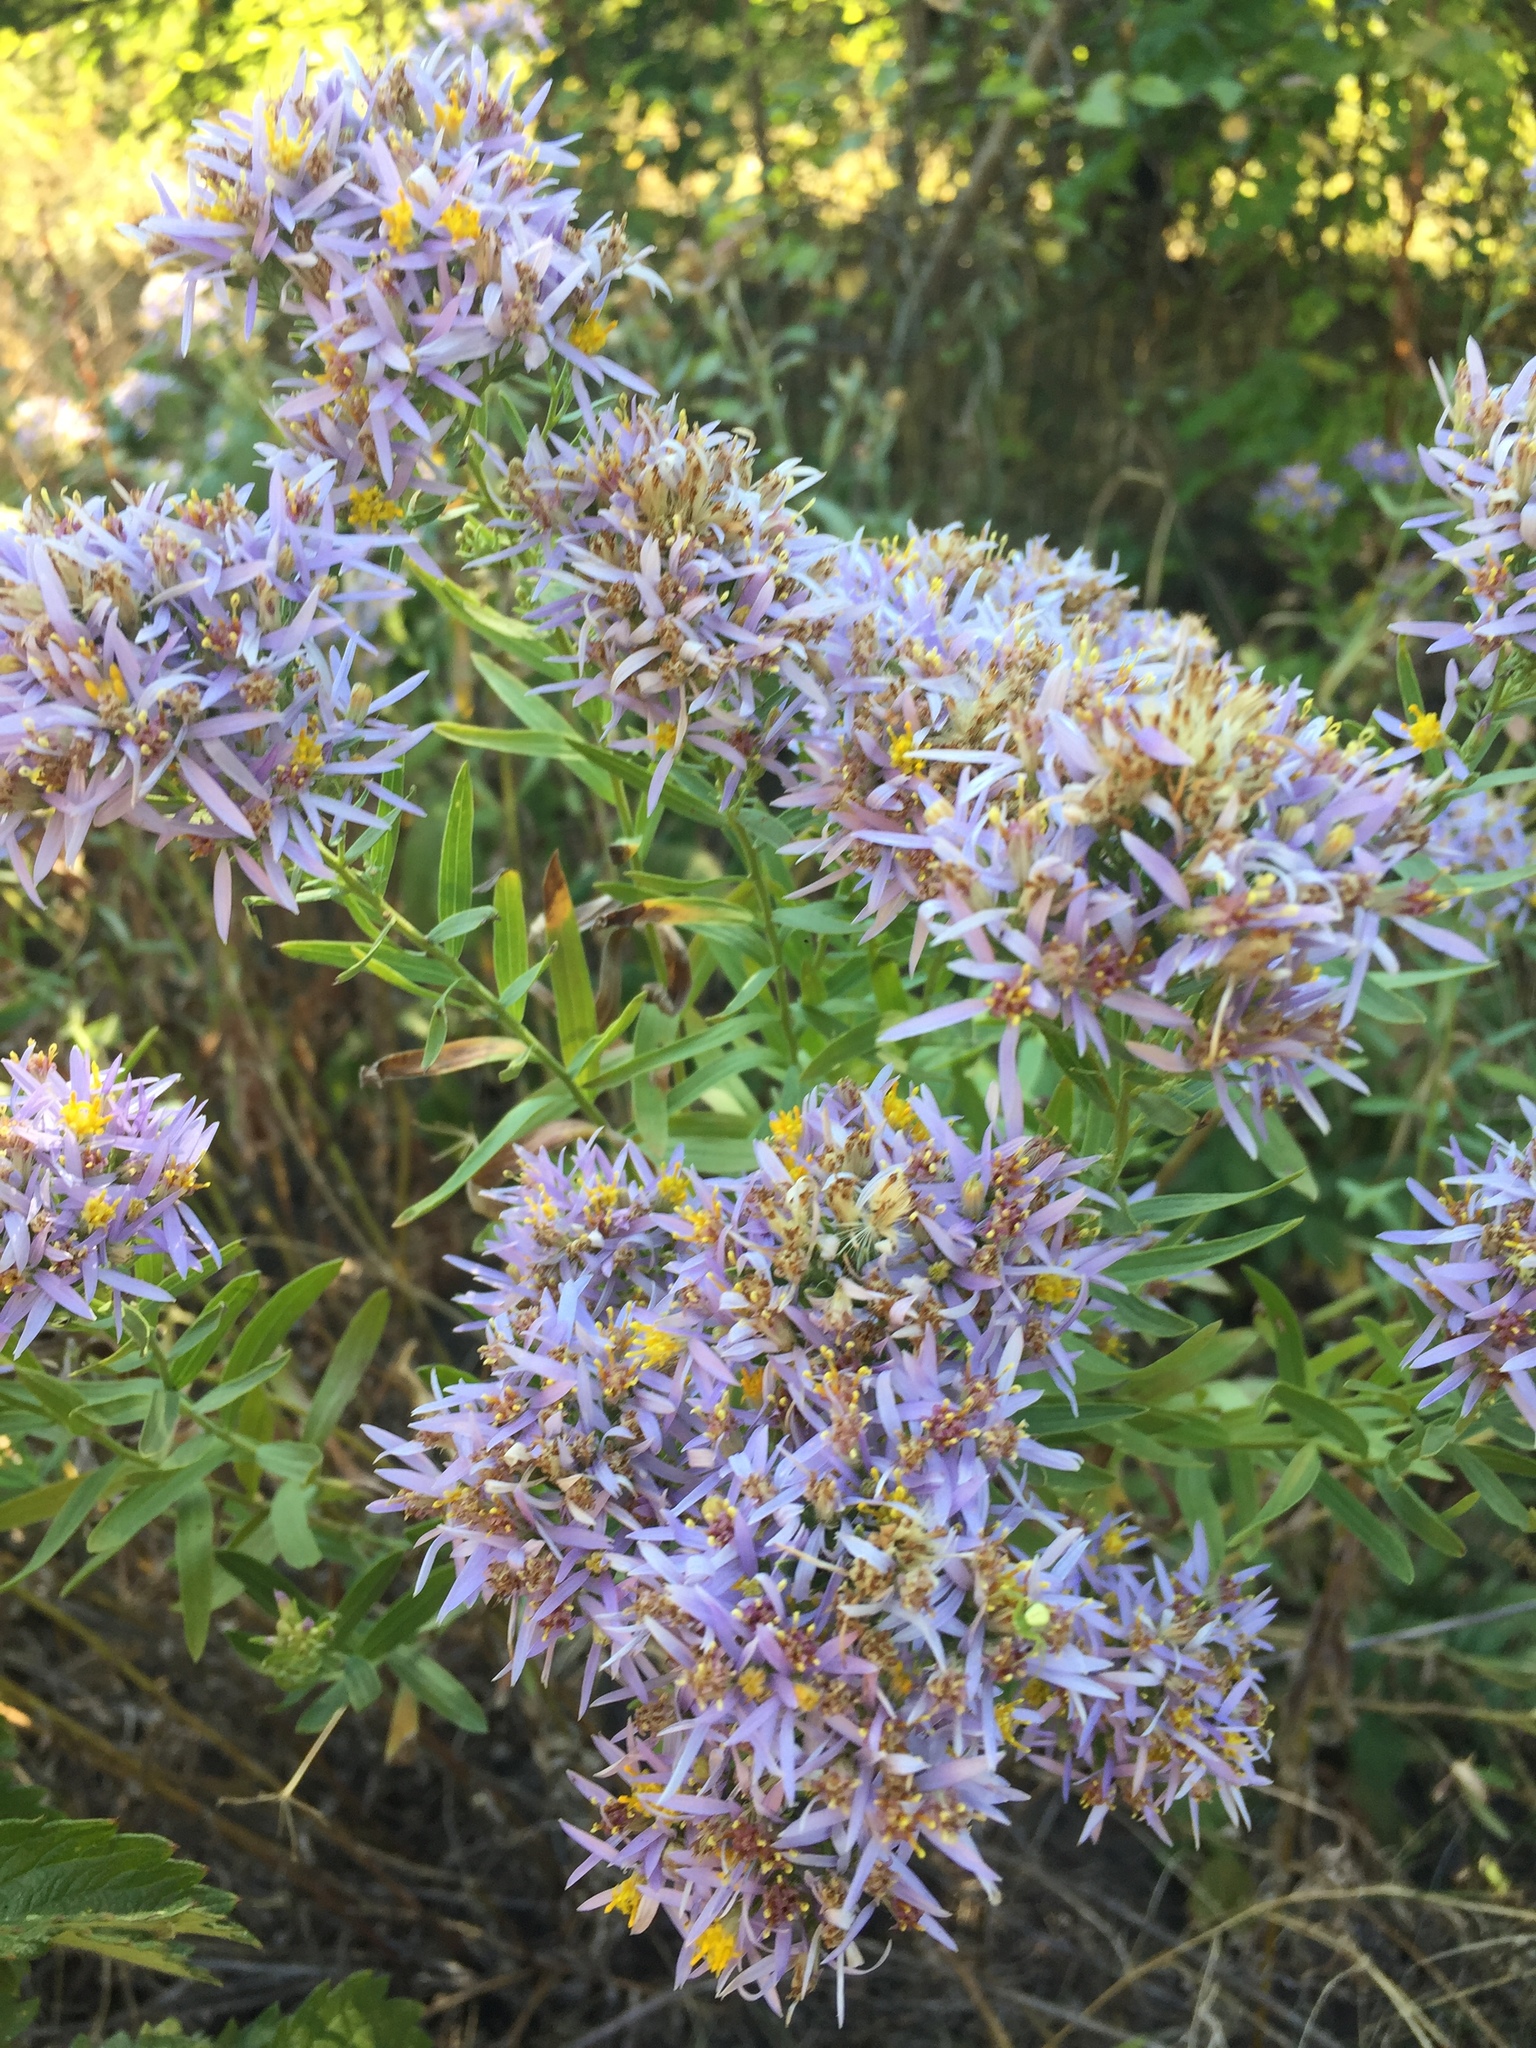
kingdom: Plantae
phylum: Tracheophyta
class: Magnoliopsida
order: Asterales
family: Asteraceae
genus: Galatella
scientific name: Galatella sedifolia
